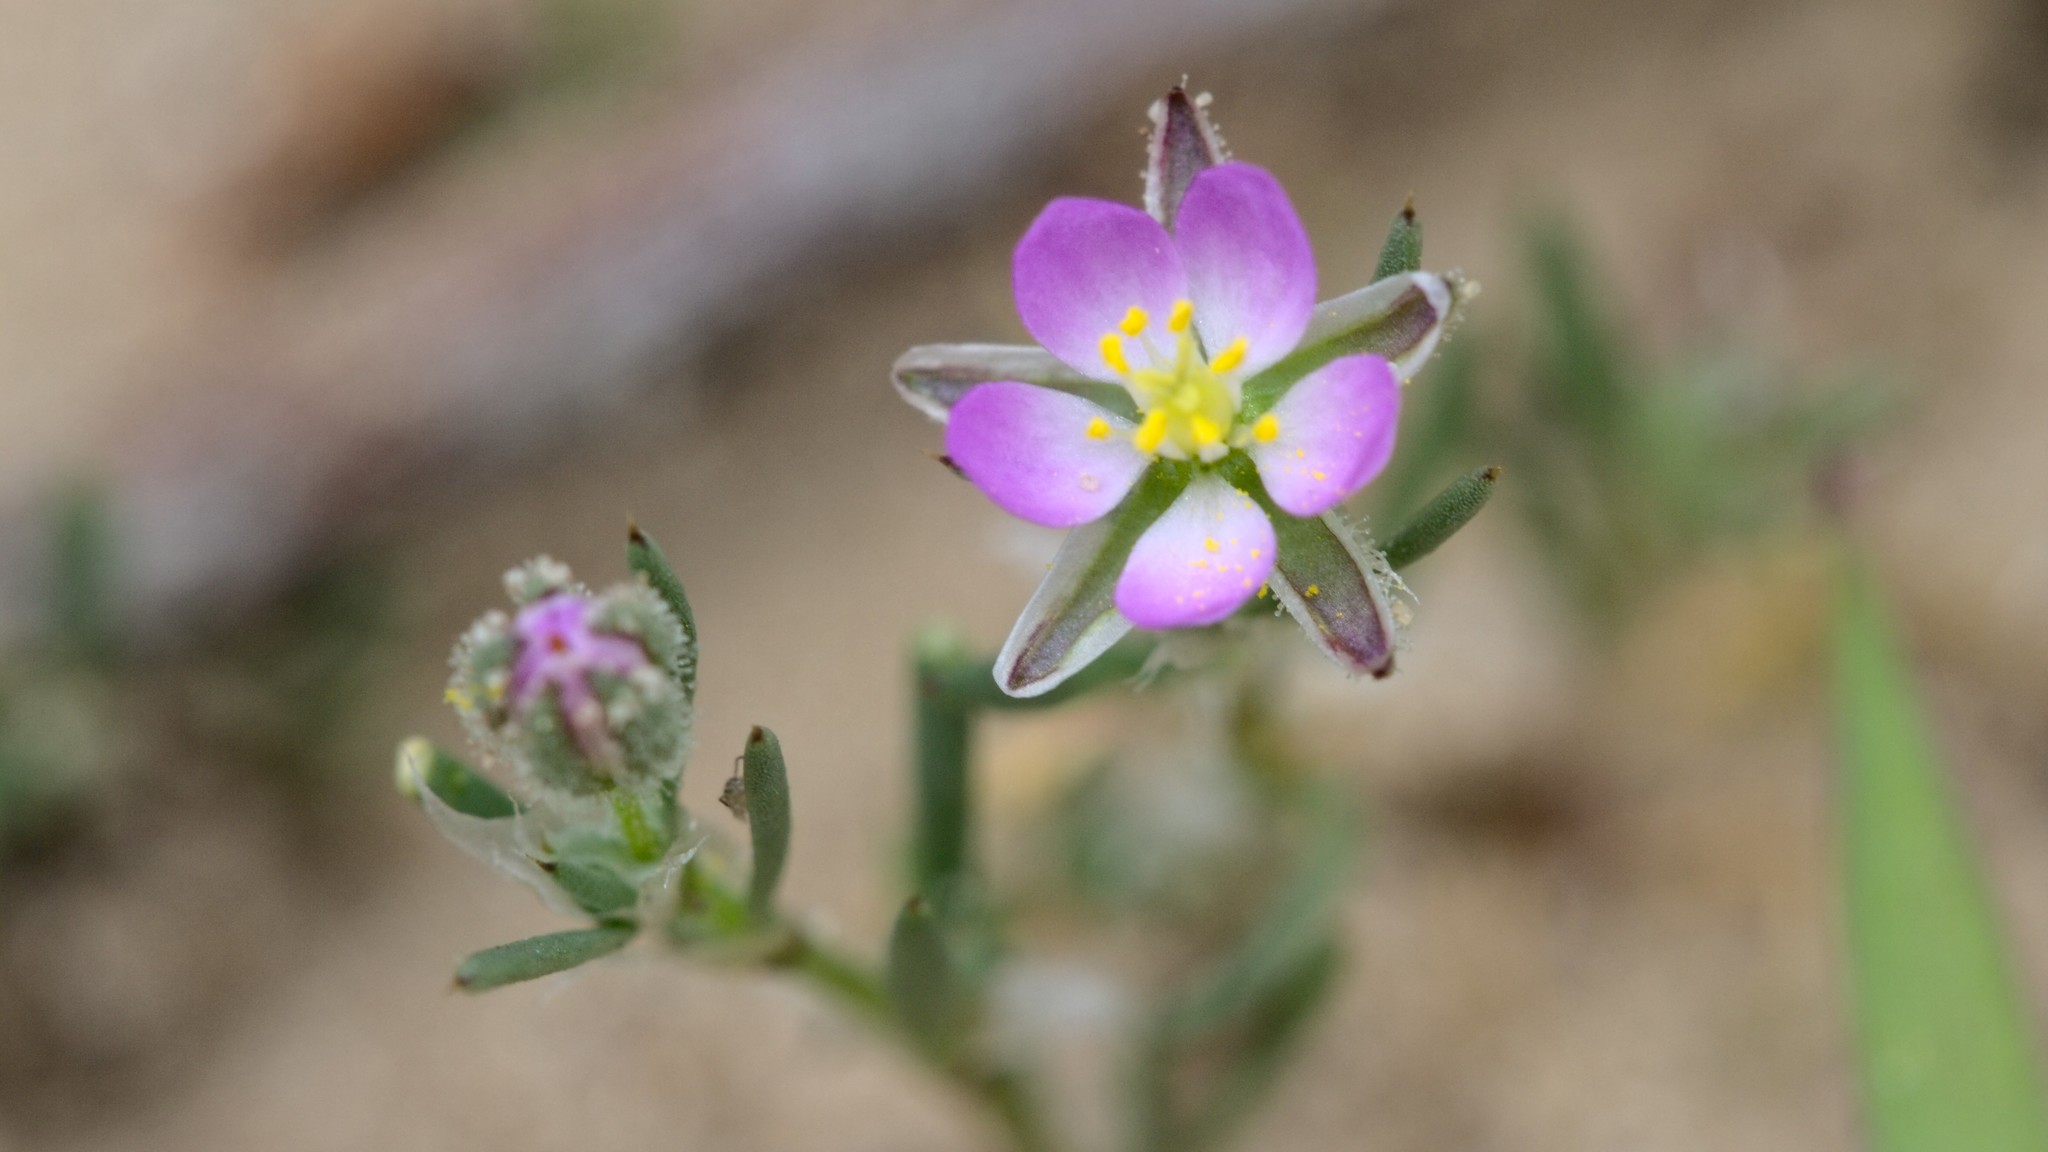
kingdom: Plantae
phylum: Tracheophyta
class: Magnoliopsida
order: Caryophyllales
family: Caryophyllaceae
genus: Spergularia
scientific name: Spergularia rubra
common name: Red sand-spurrey
